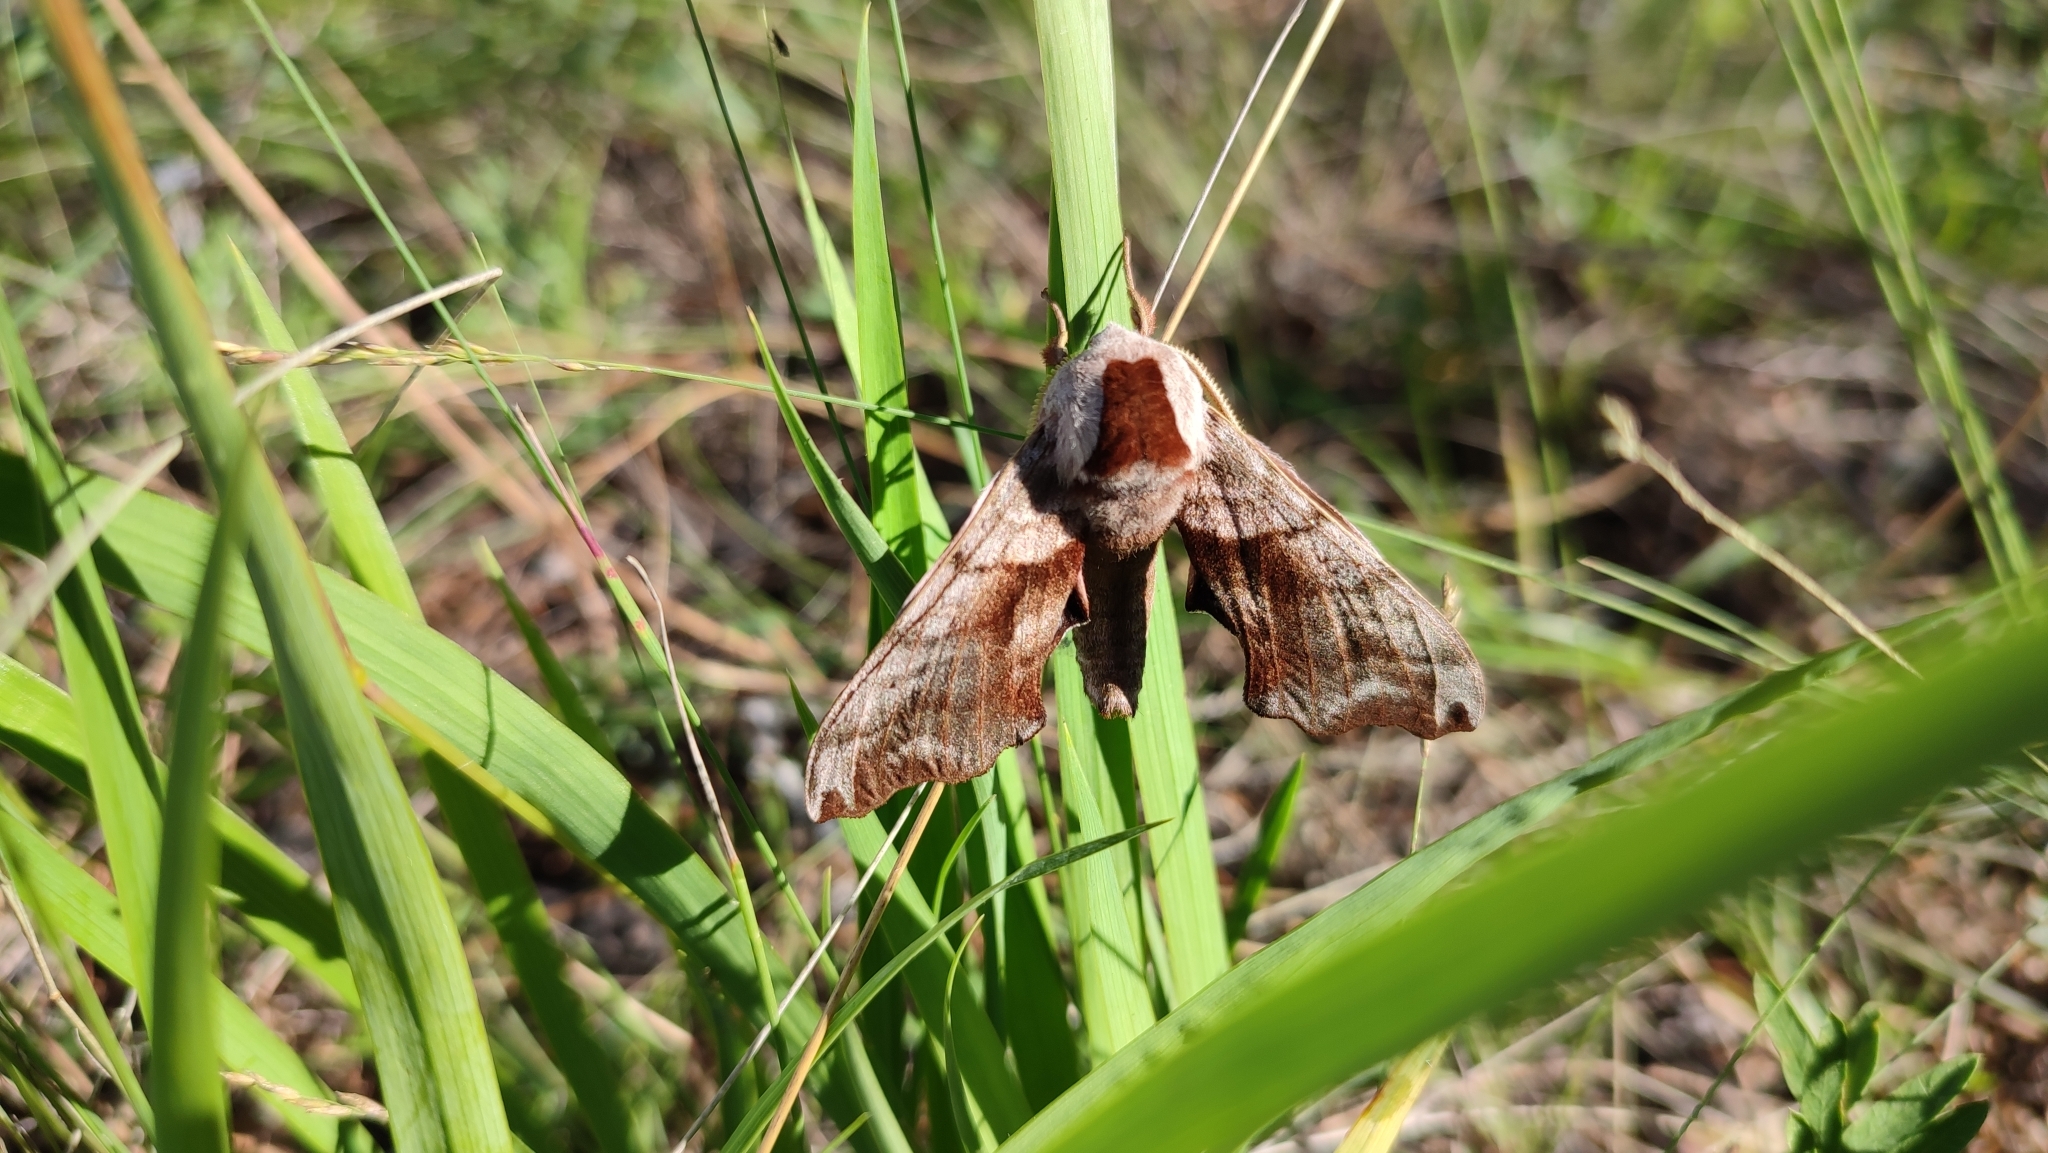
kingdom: Animalia
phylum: Arthropoda
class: Insecta
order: Lepidoptera
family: Sphingidae
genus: Smerinthus
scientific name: Smerinthus caecus
